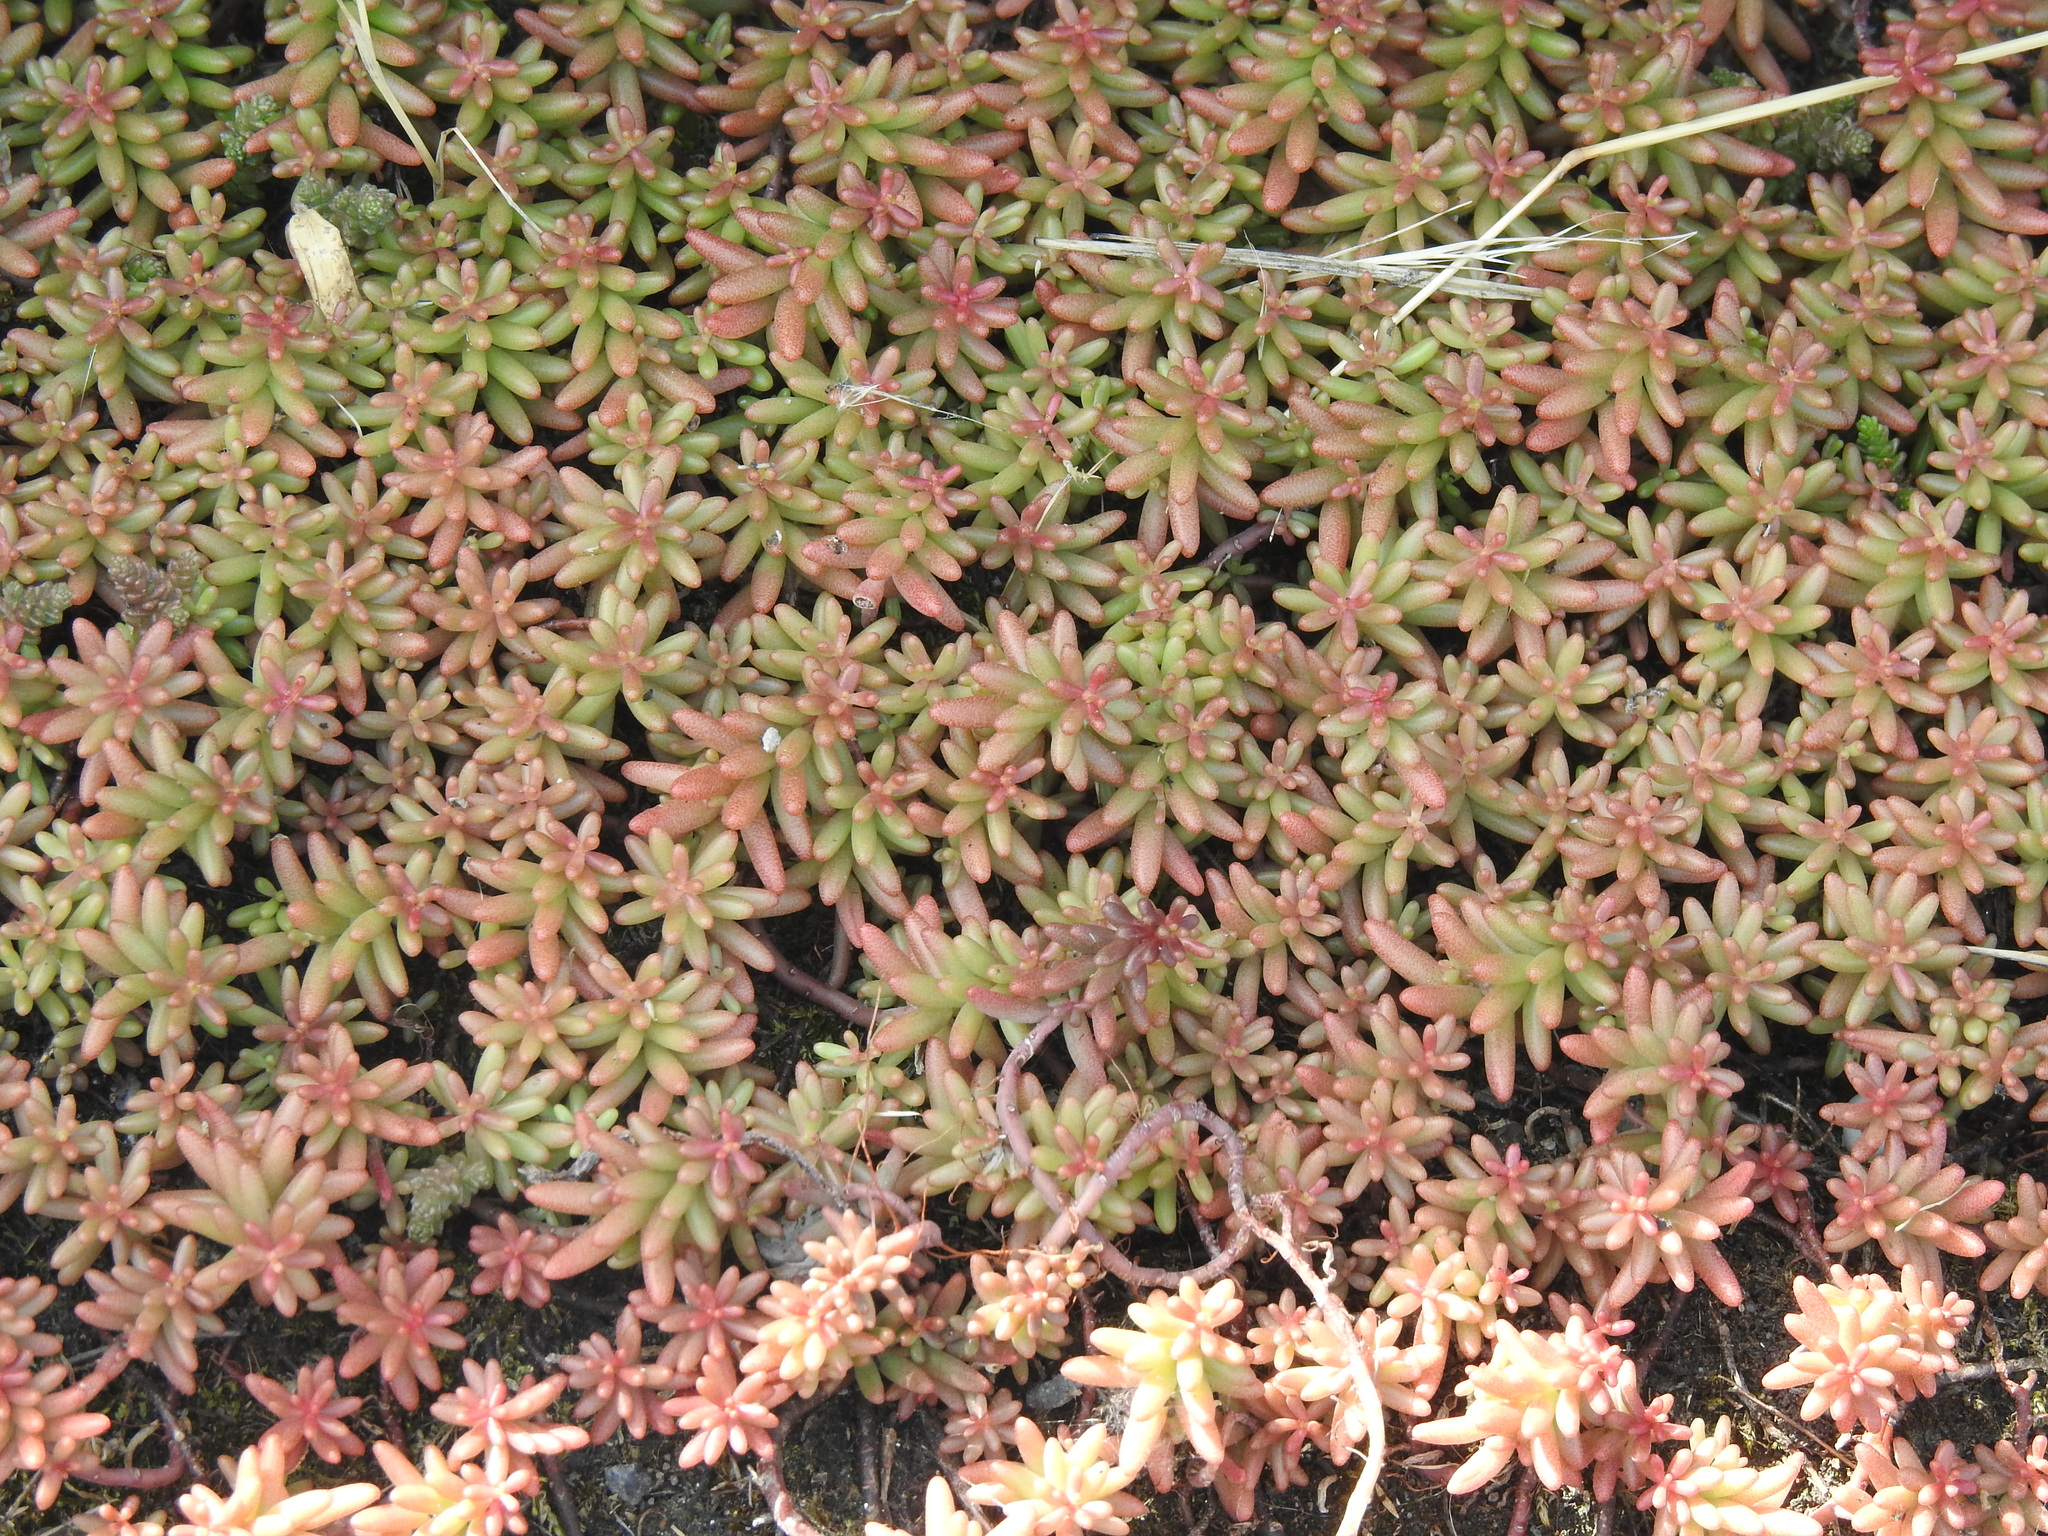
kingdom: Plantae
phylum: Tracheophyta
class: Magnoliopsida
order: Saxifragales
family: Crassulaceae
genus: Sedum
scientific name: Sedum album
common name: White stonecrop
